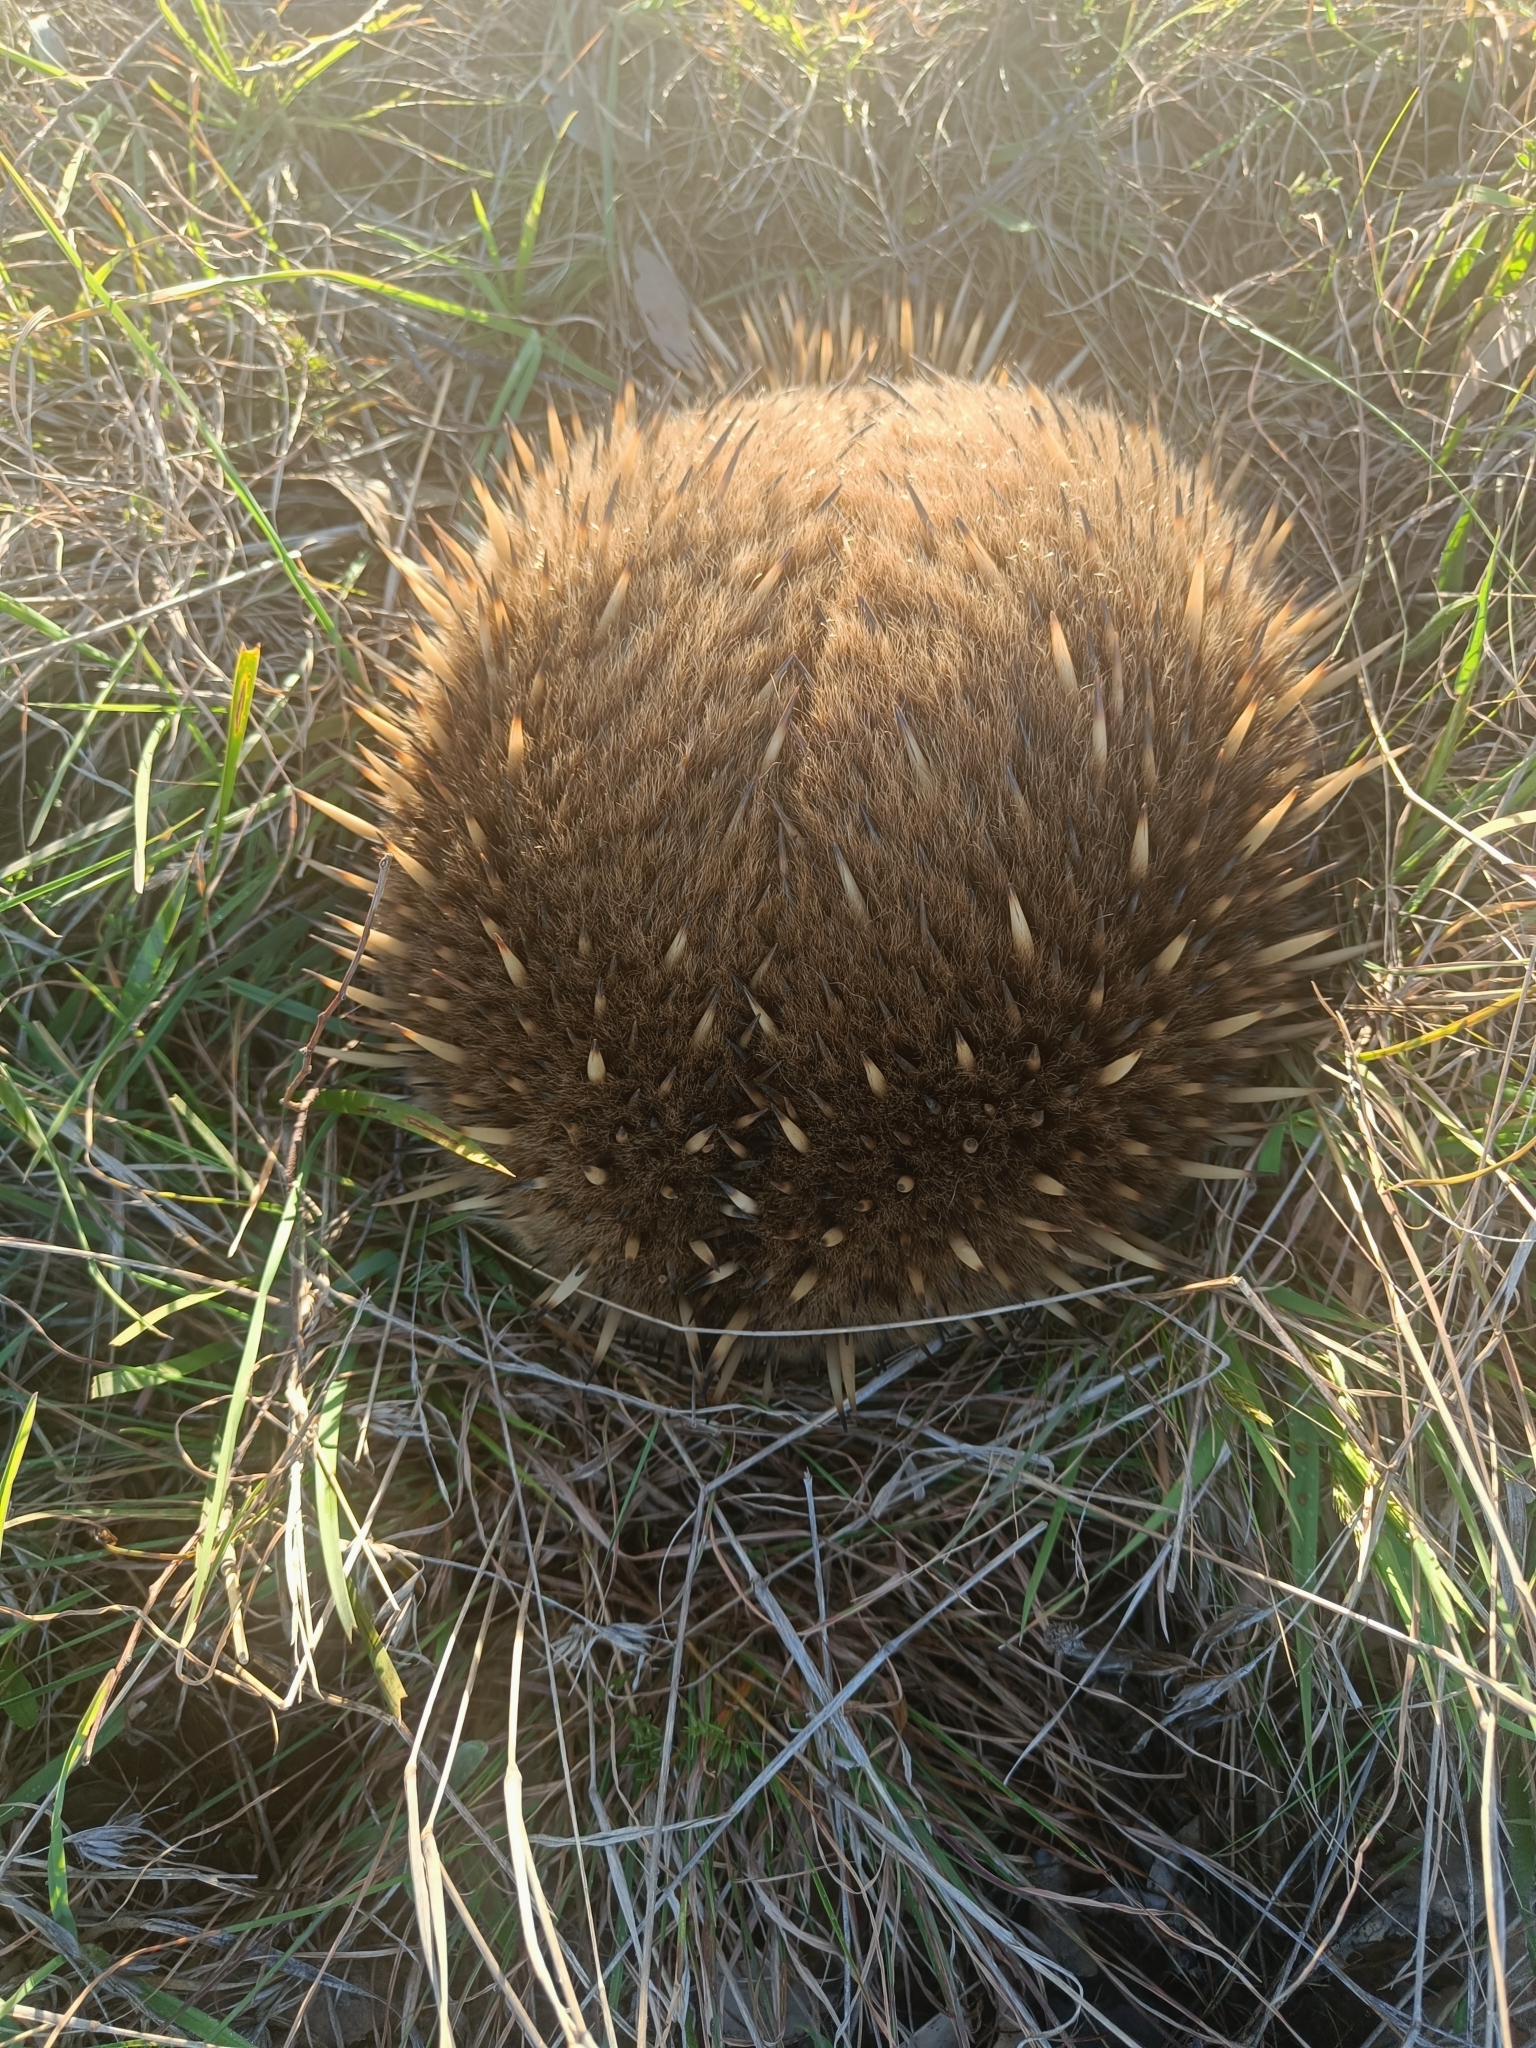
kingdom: Animalia
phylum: Chordata
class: Mammalia
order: Monotremata
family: Tachyglossidae
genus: Tachyglossus
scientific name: Tachyglossus aculeatus
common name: Short-beaked echidna
